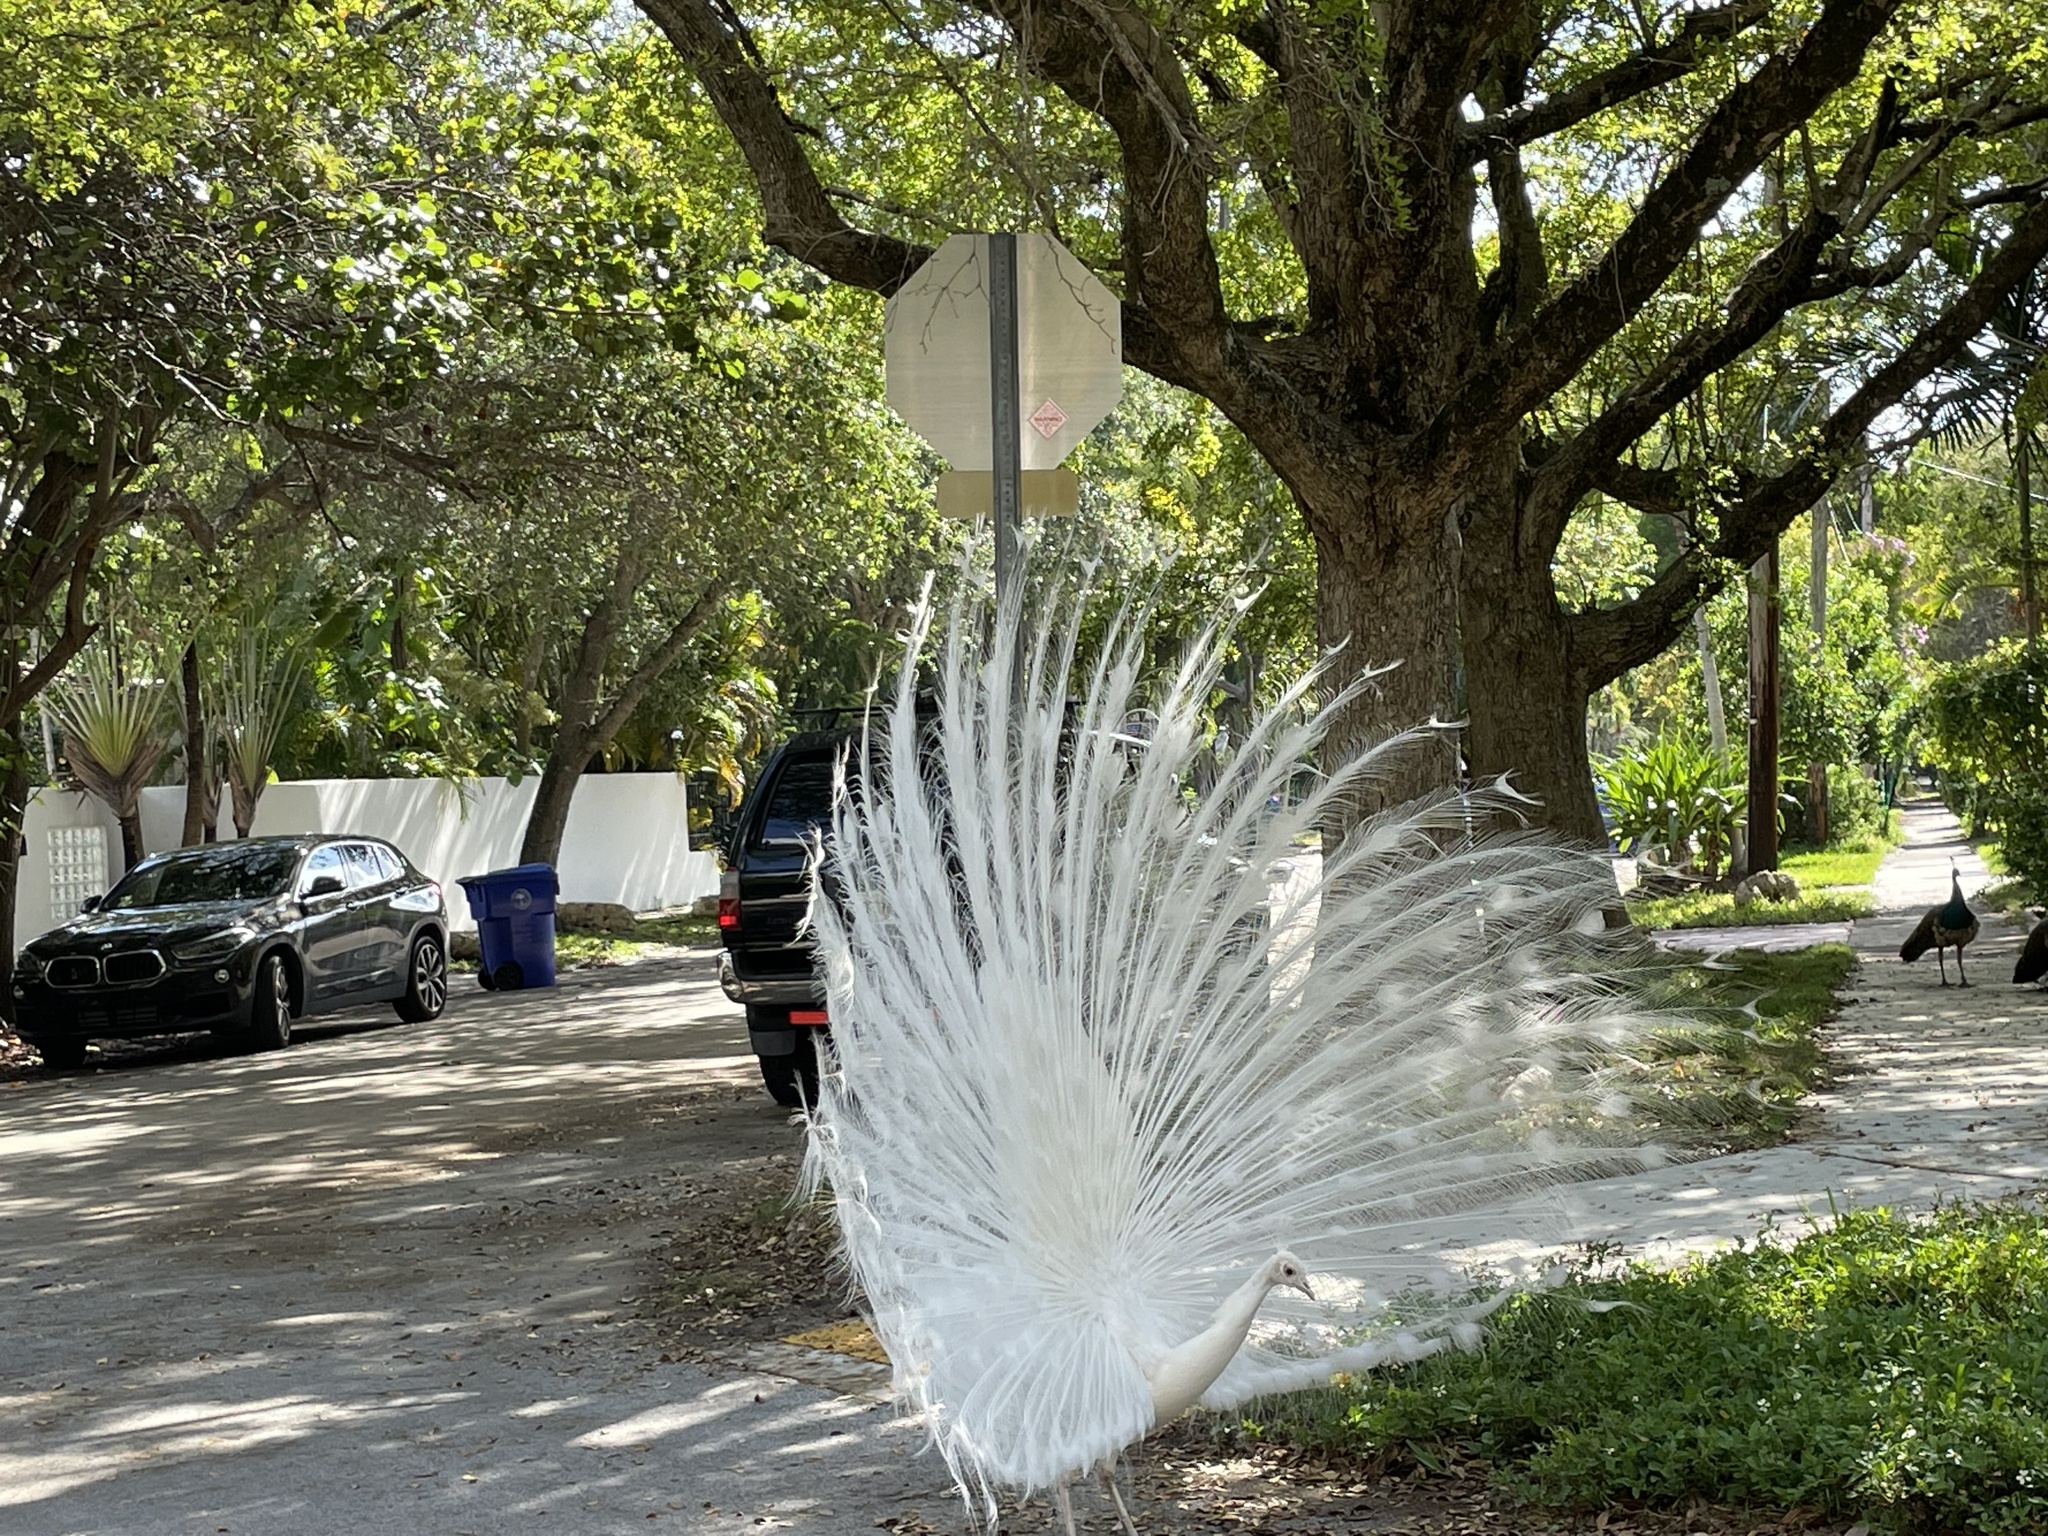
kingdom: Animalia
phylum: Chordata
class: Aves
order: Galliformes
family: Phasianidae
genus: Pavo
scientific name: Pavo cristatus
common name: Indian peafowl
